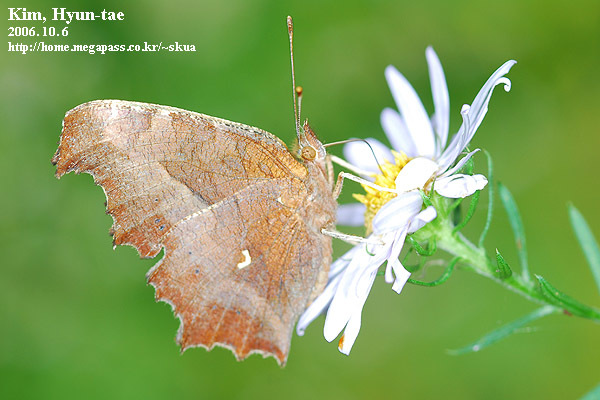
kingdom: Animalia
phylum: Arthropoda
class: Insecta
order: Lepidoptera
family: Nymphalidae
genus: Polygonia
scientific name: Polygonia c-aureum
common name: Asian comma
